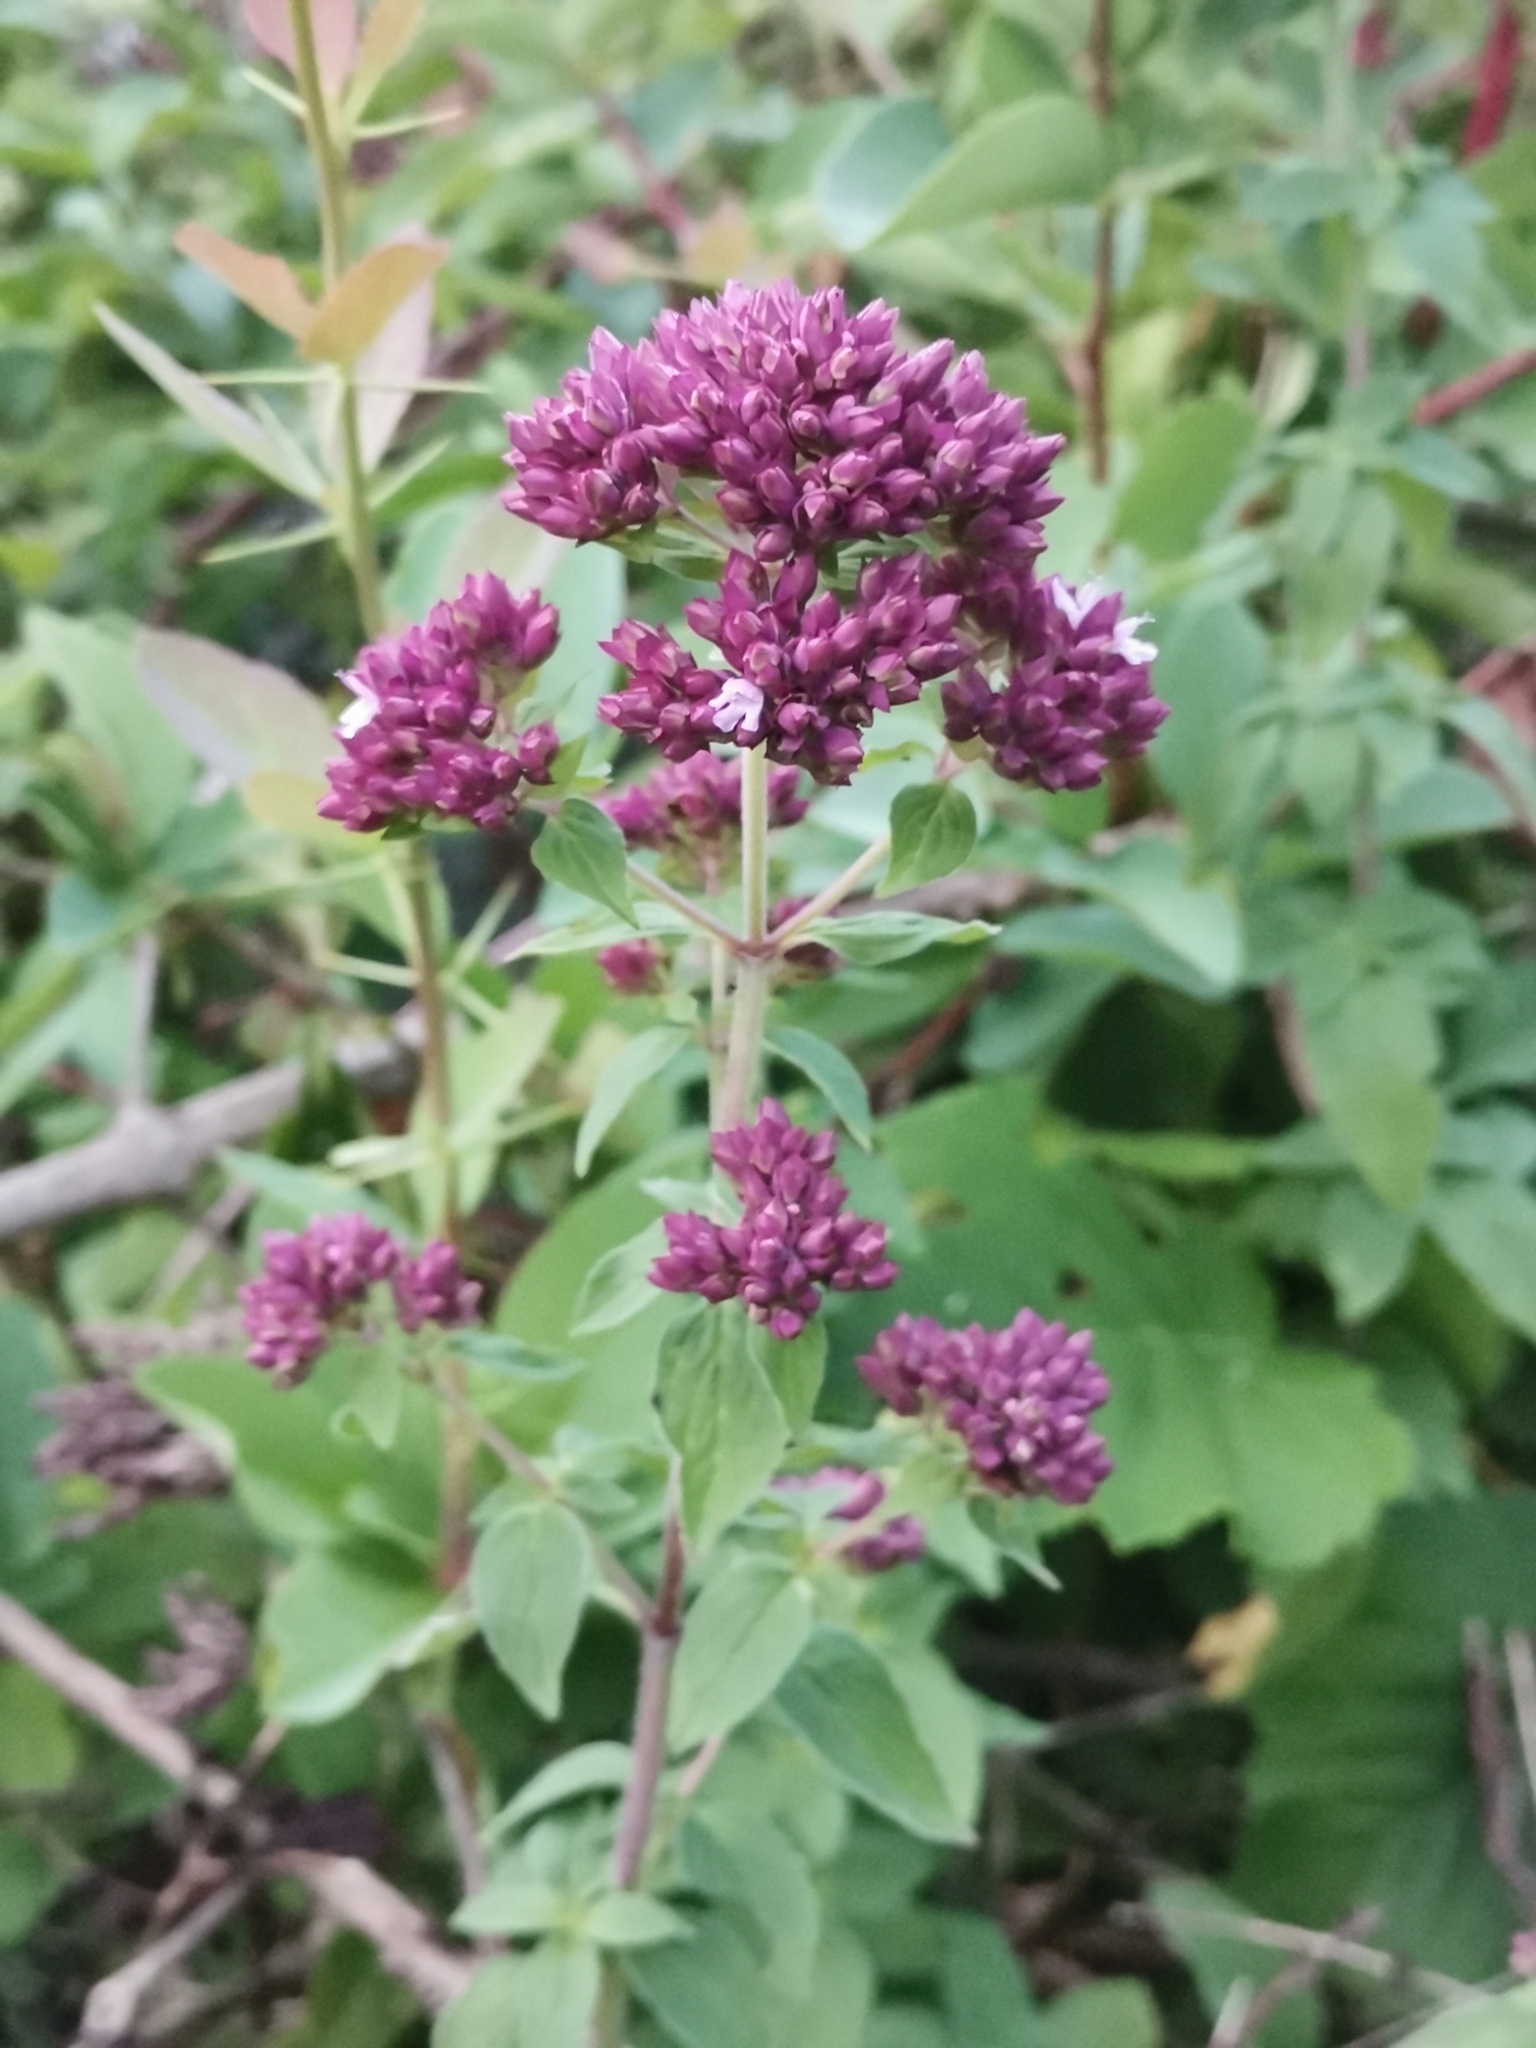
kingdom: Plantae
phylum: Tracheophyta
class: Magnoliopsida
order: Lamiales
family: Lamiaceae
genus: Origanum
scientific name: Origanum vulgare
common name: Wild marjoram
